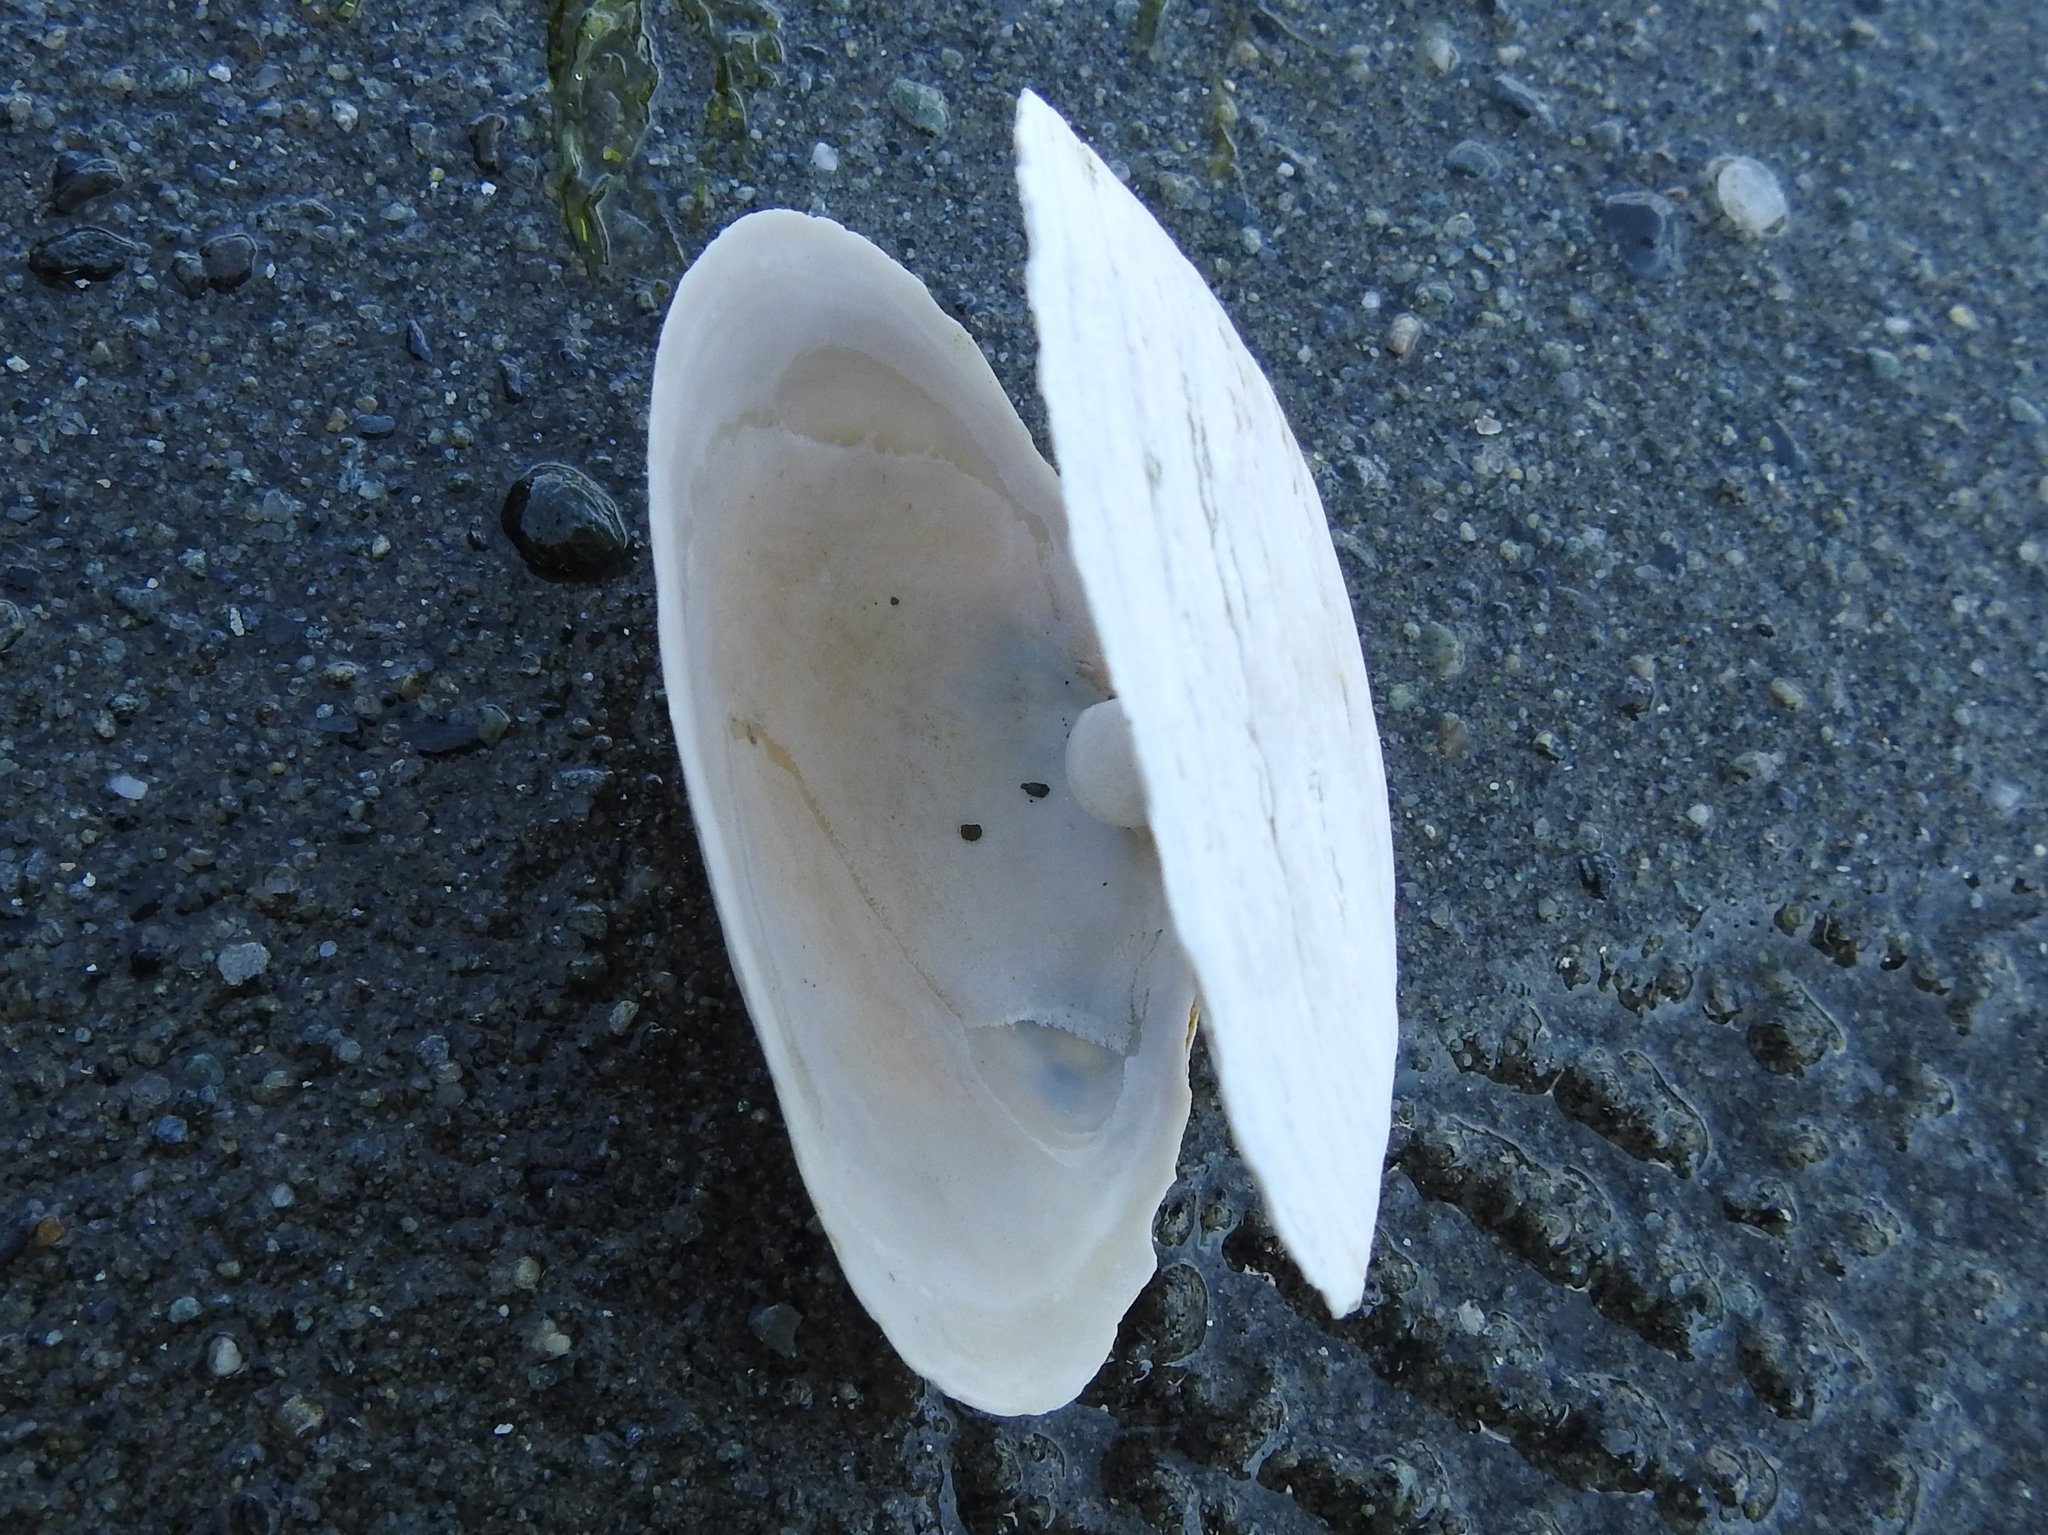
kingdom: Animalia
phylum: Mollusca
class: Bivalvia
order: Myida
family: Myidae
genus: Mya
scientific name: Mya arenaria
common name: Soft-shelled clam
